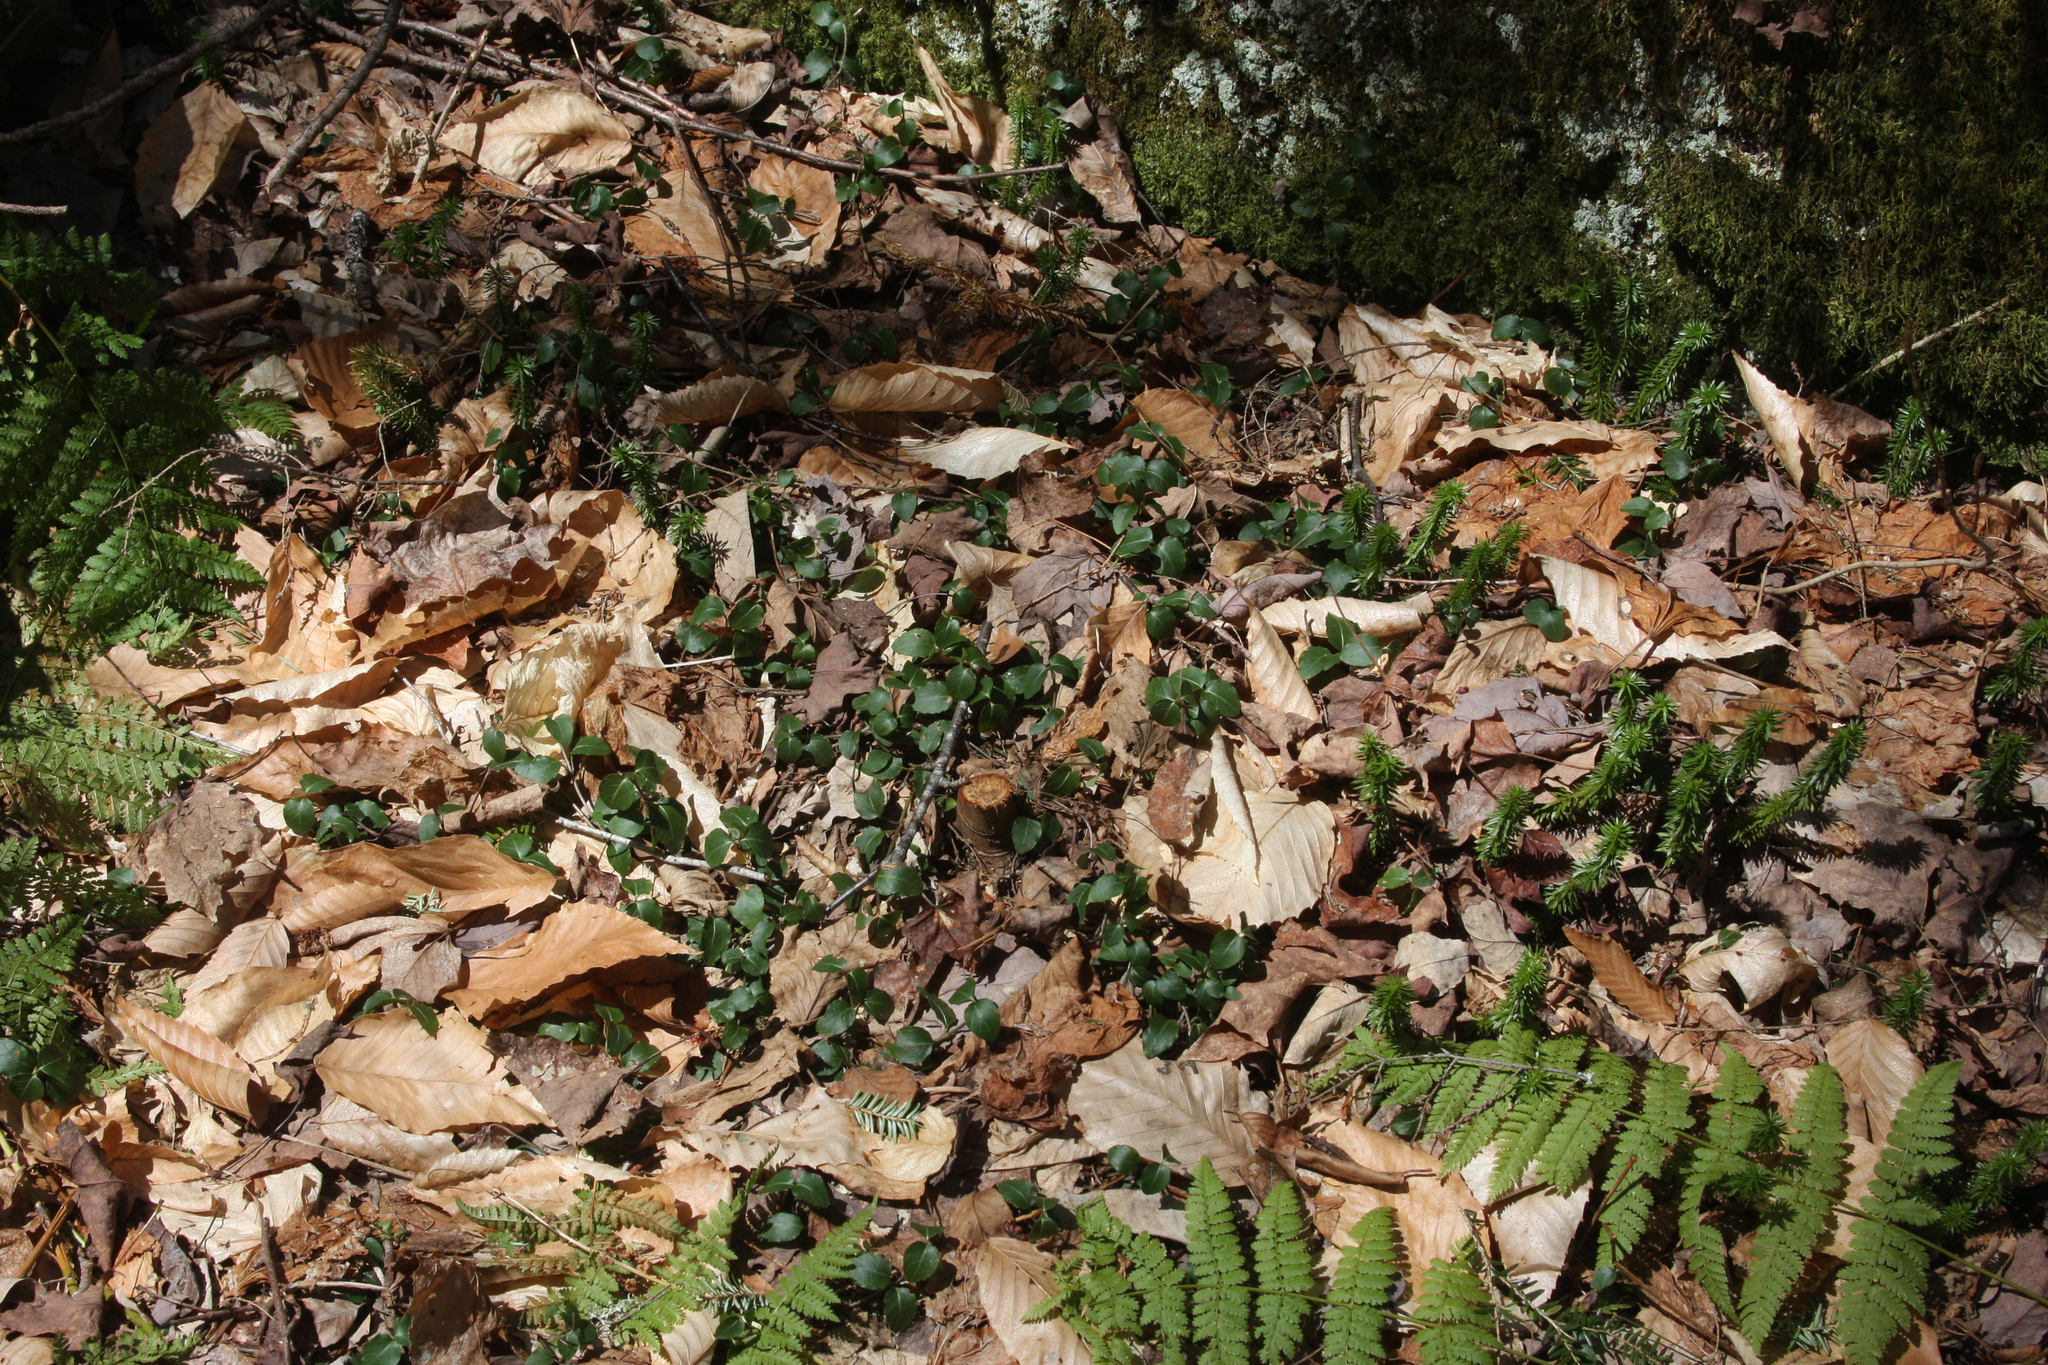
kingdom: Plantae
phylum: Tracheophyta
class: Magnoliopsida
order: Gentianales
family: Rubiaceae
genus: Mitchella
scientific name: Mitchella repens
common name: Partridge-berry
